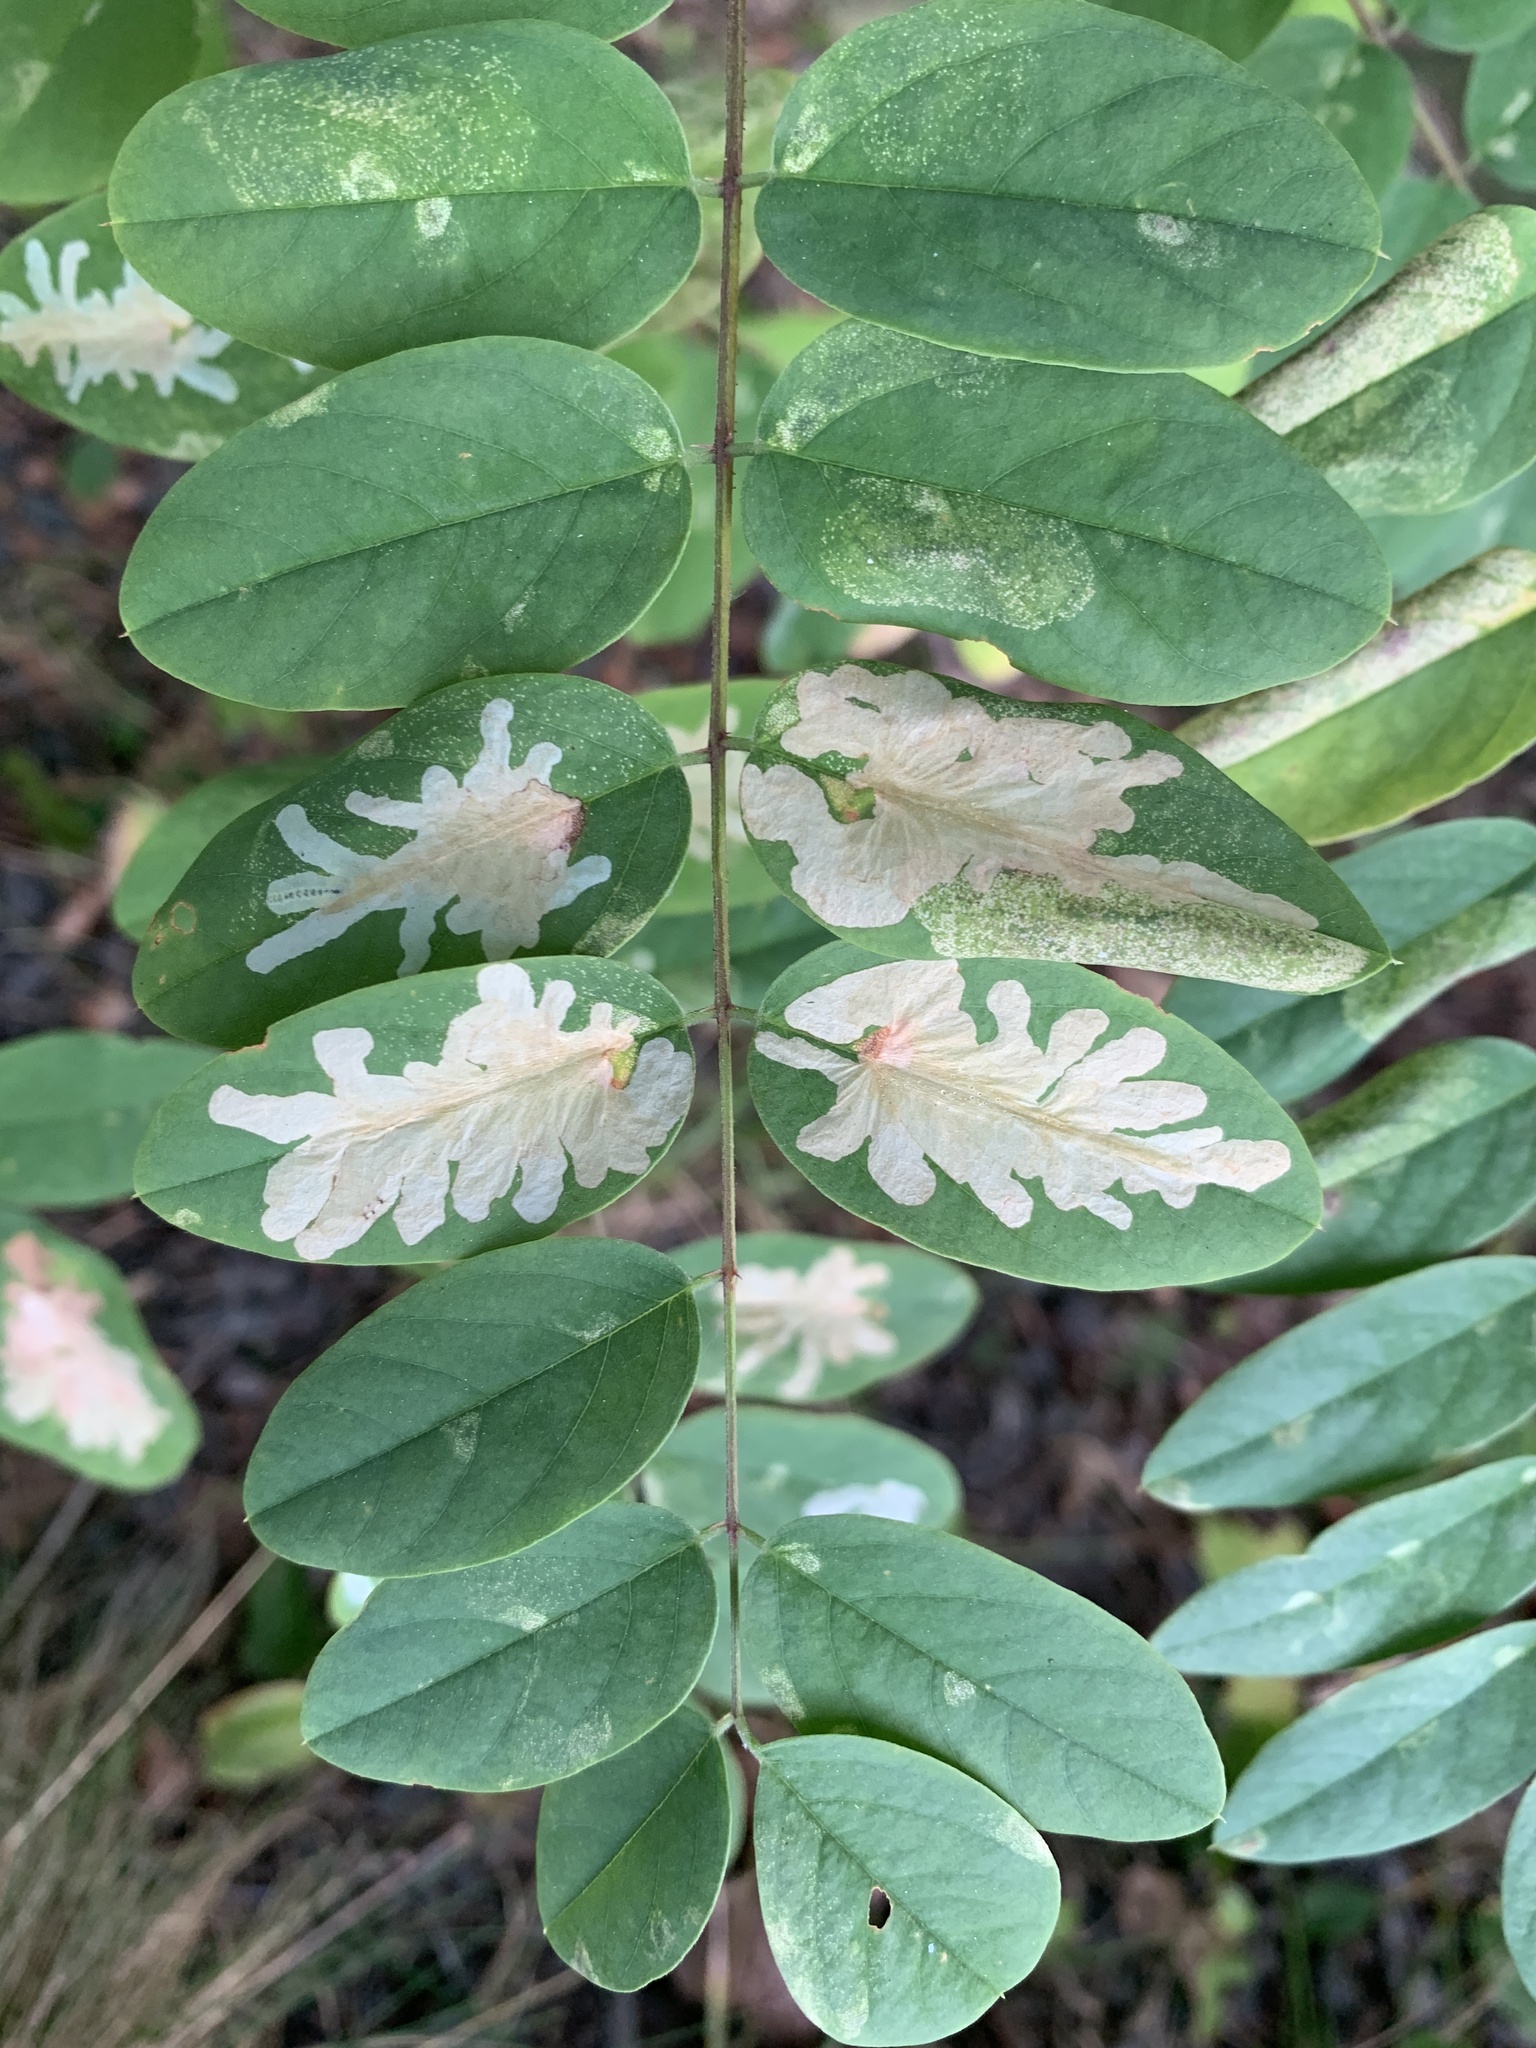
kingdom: Animalia
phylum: Arthropoda
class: Insecta
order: Lepidoptera
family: Gracillariidae
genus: Parectopa
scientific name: Parectopa robiniella
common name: Locust digitate leafminer
